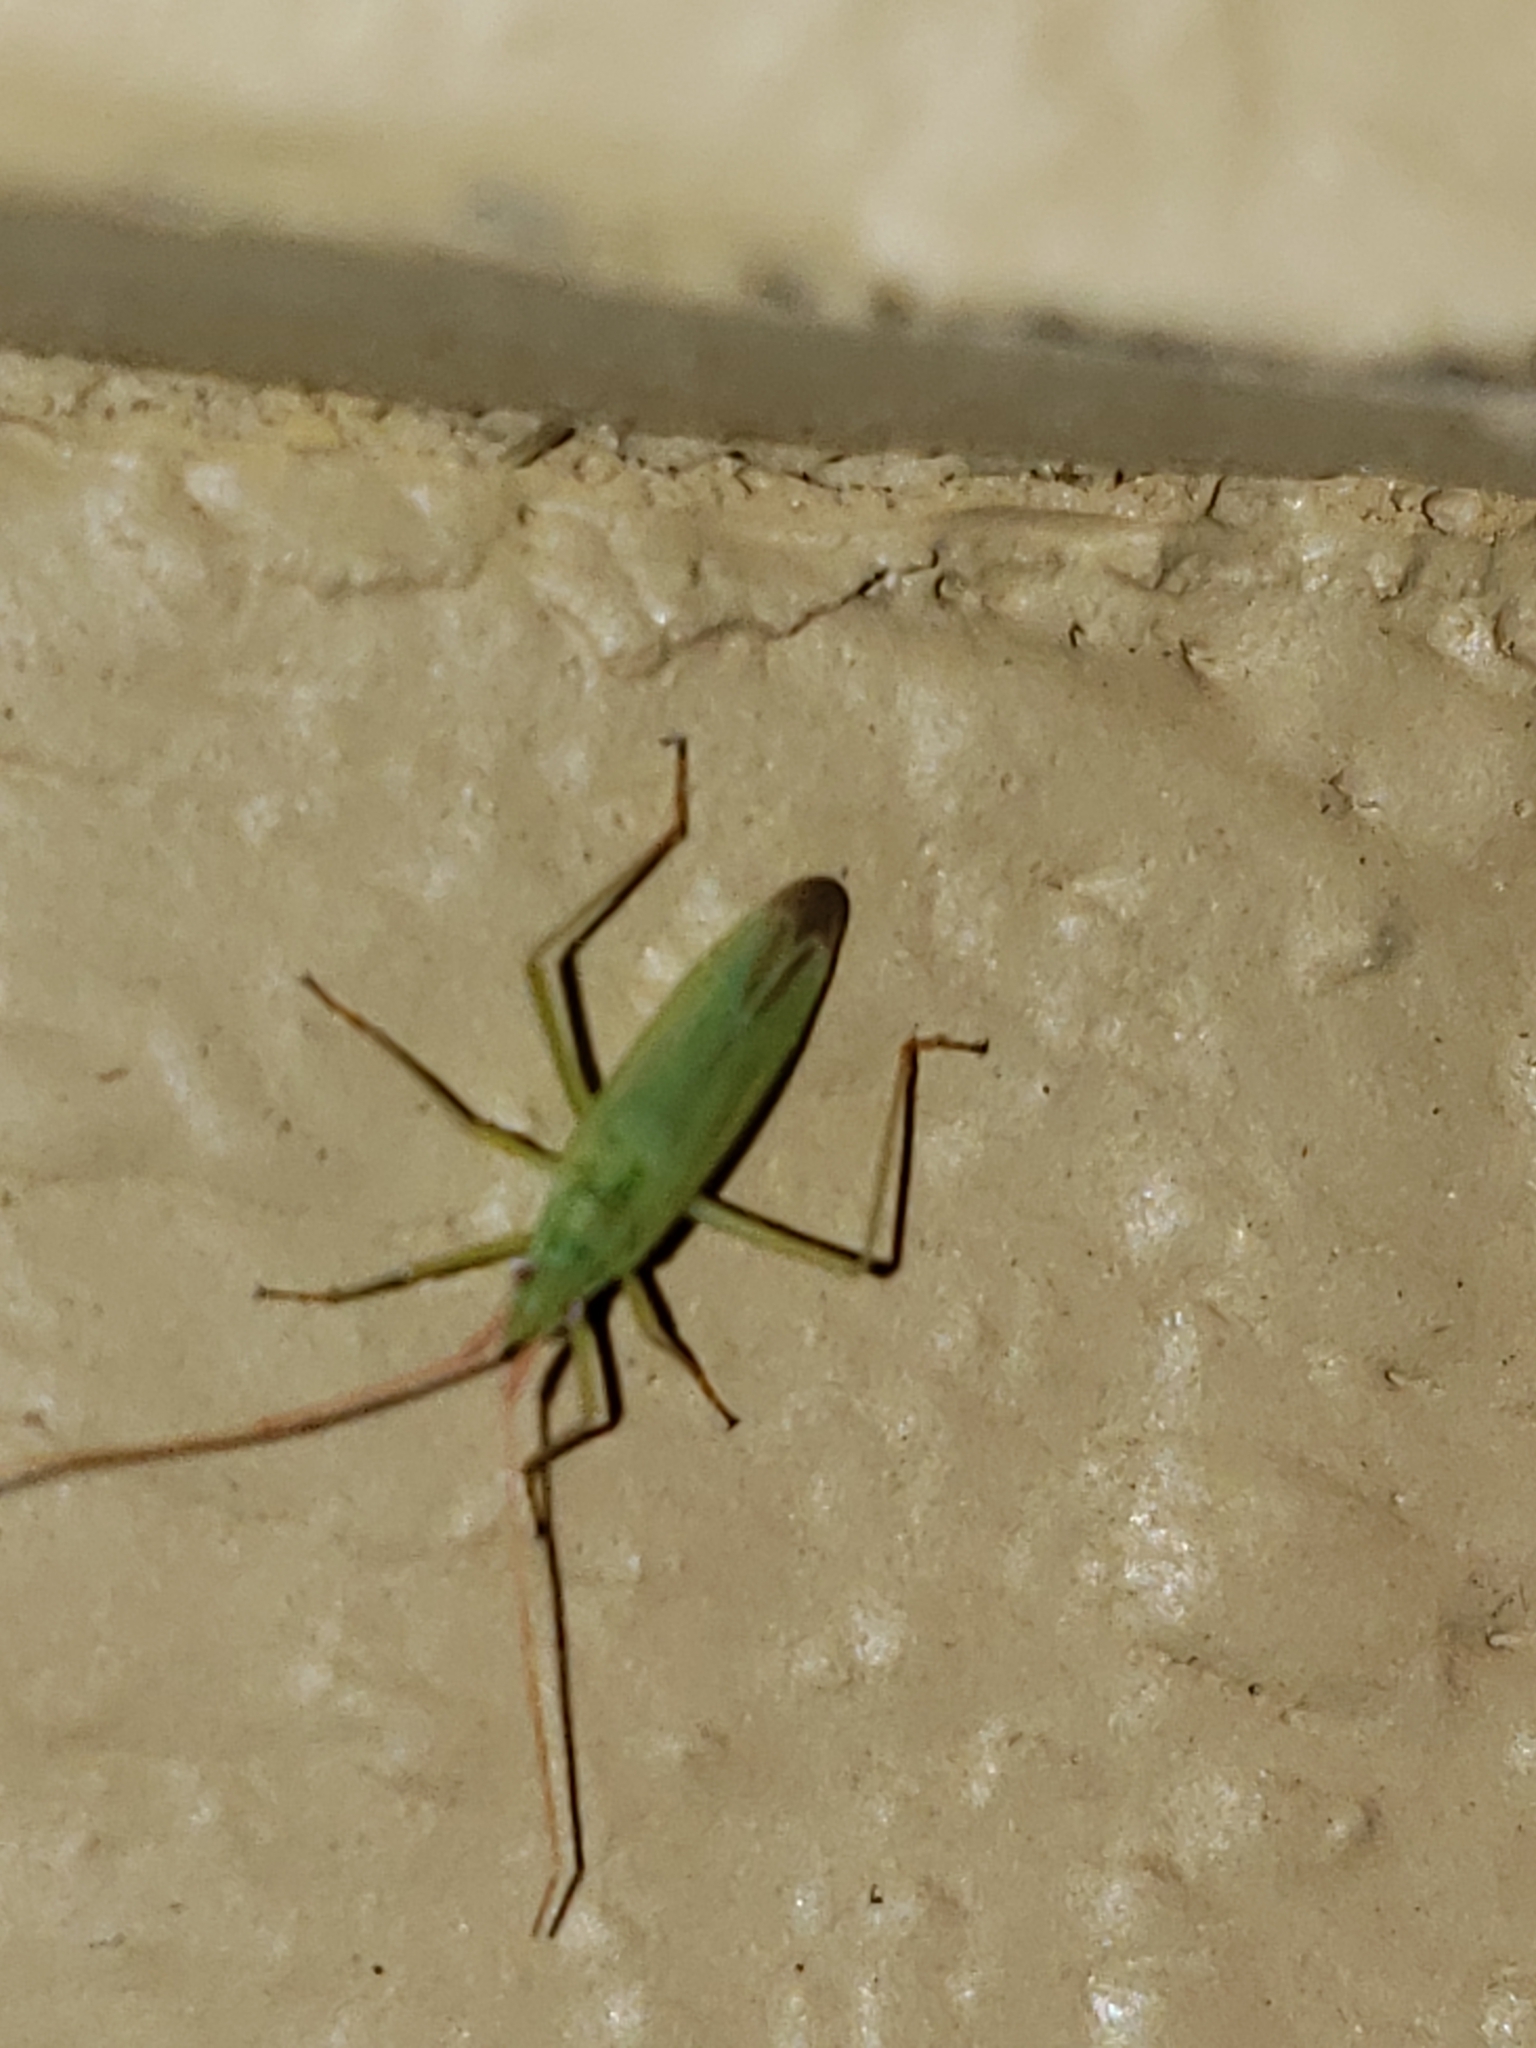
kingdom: Animalia
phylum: Arthropoda
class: Insecta
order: Hemiptera
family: Miridae
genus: Trigonotylus
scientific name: Trigonotylus caelestialium
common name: Rice leaf bug
